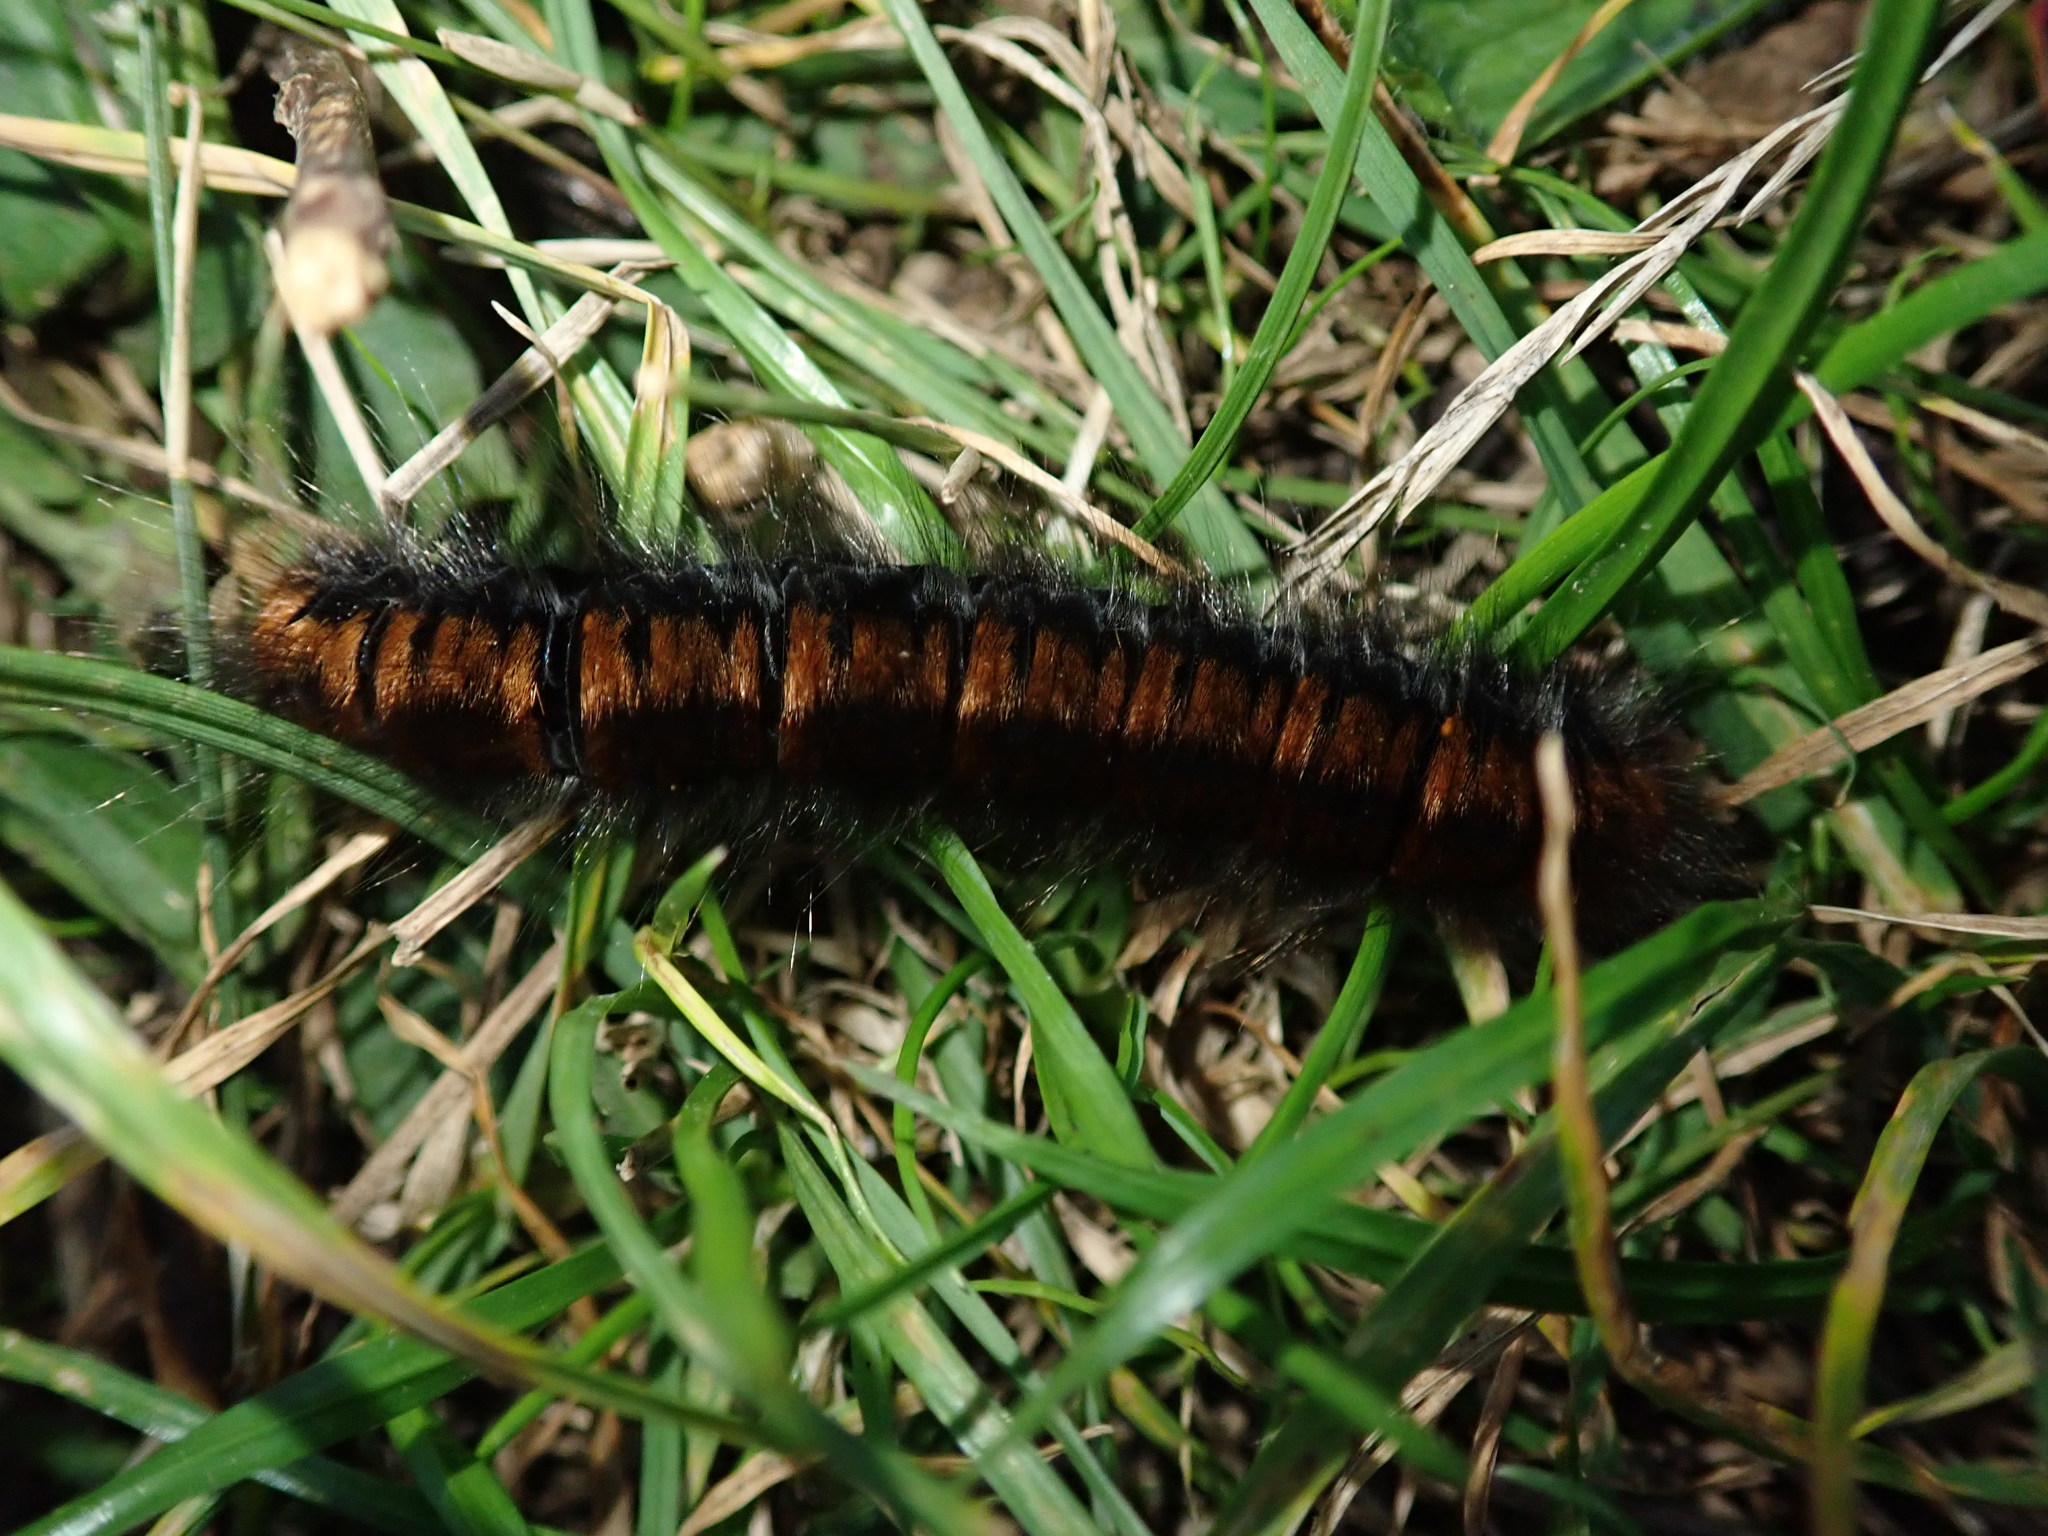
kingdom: Animalia
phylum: Arthropoda
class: Insecta
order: Lepidoptera
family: Lasiocampidae
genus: Macrothylacia
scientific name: Macrothylacia rubi
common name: Fox moth
